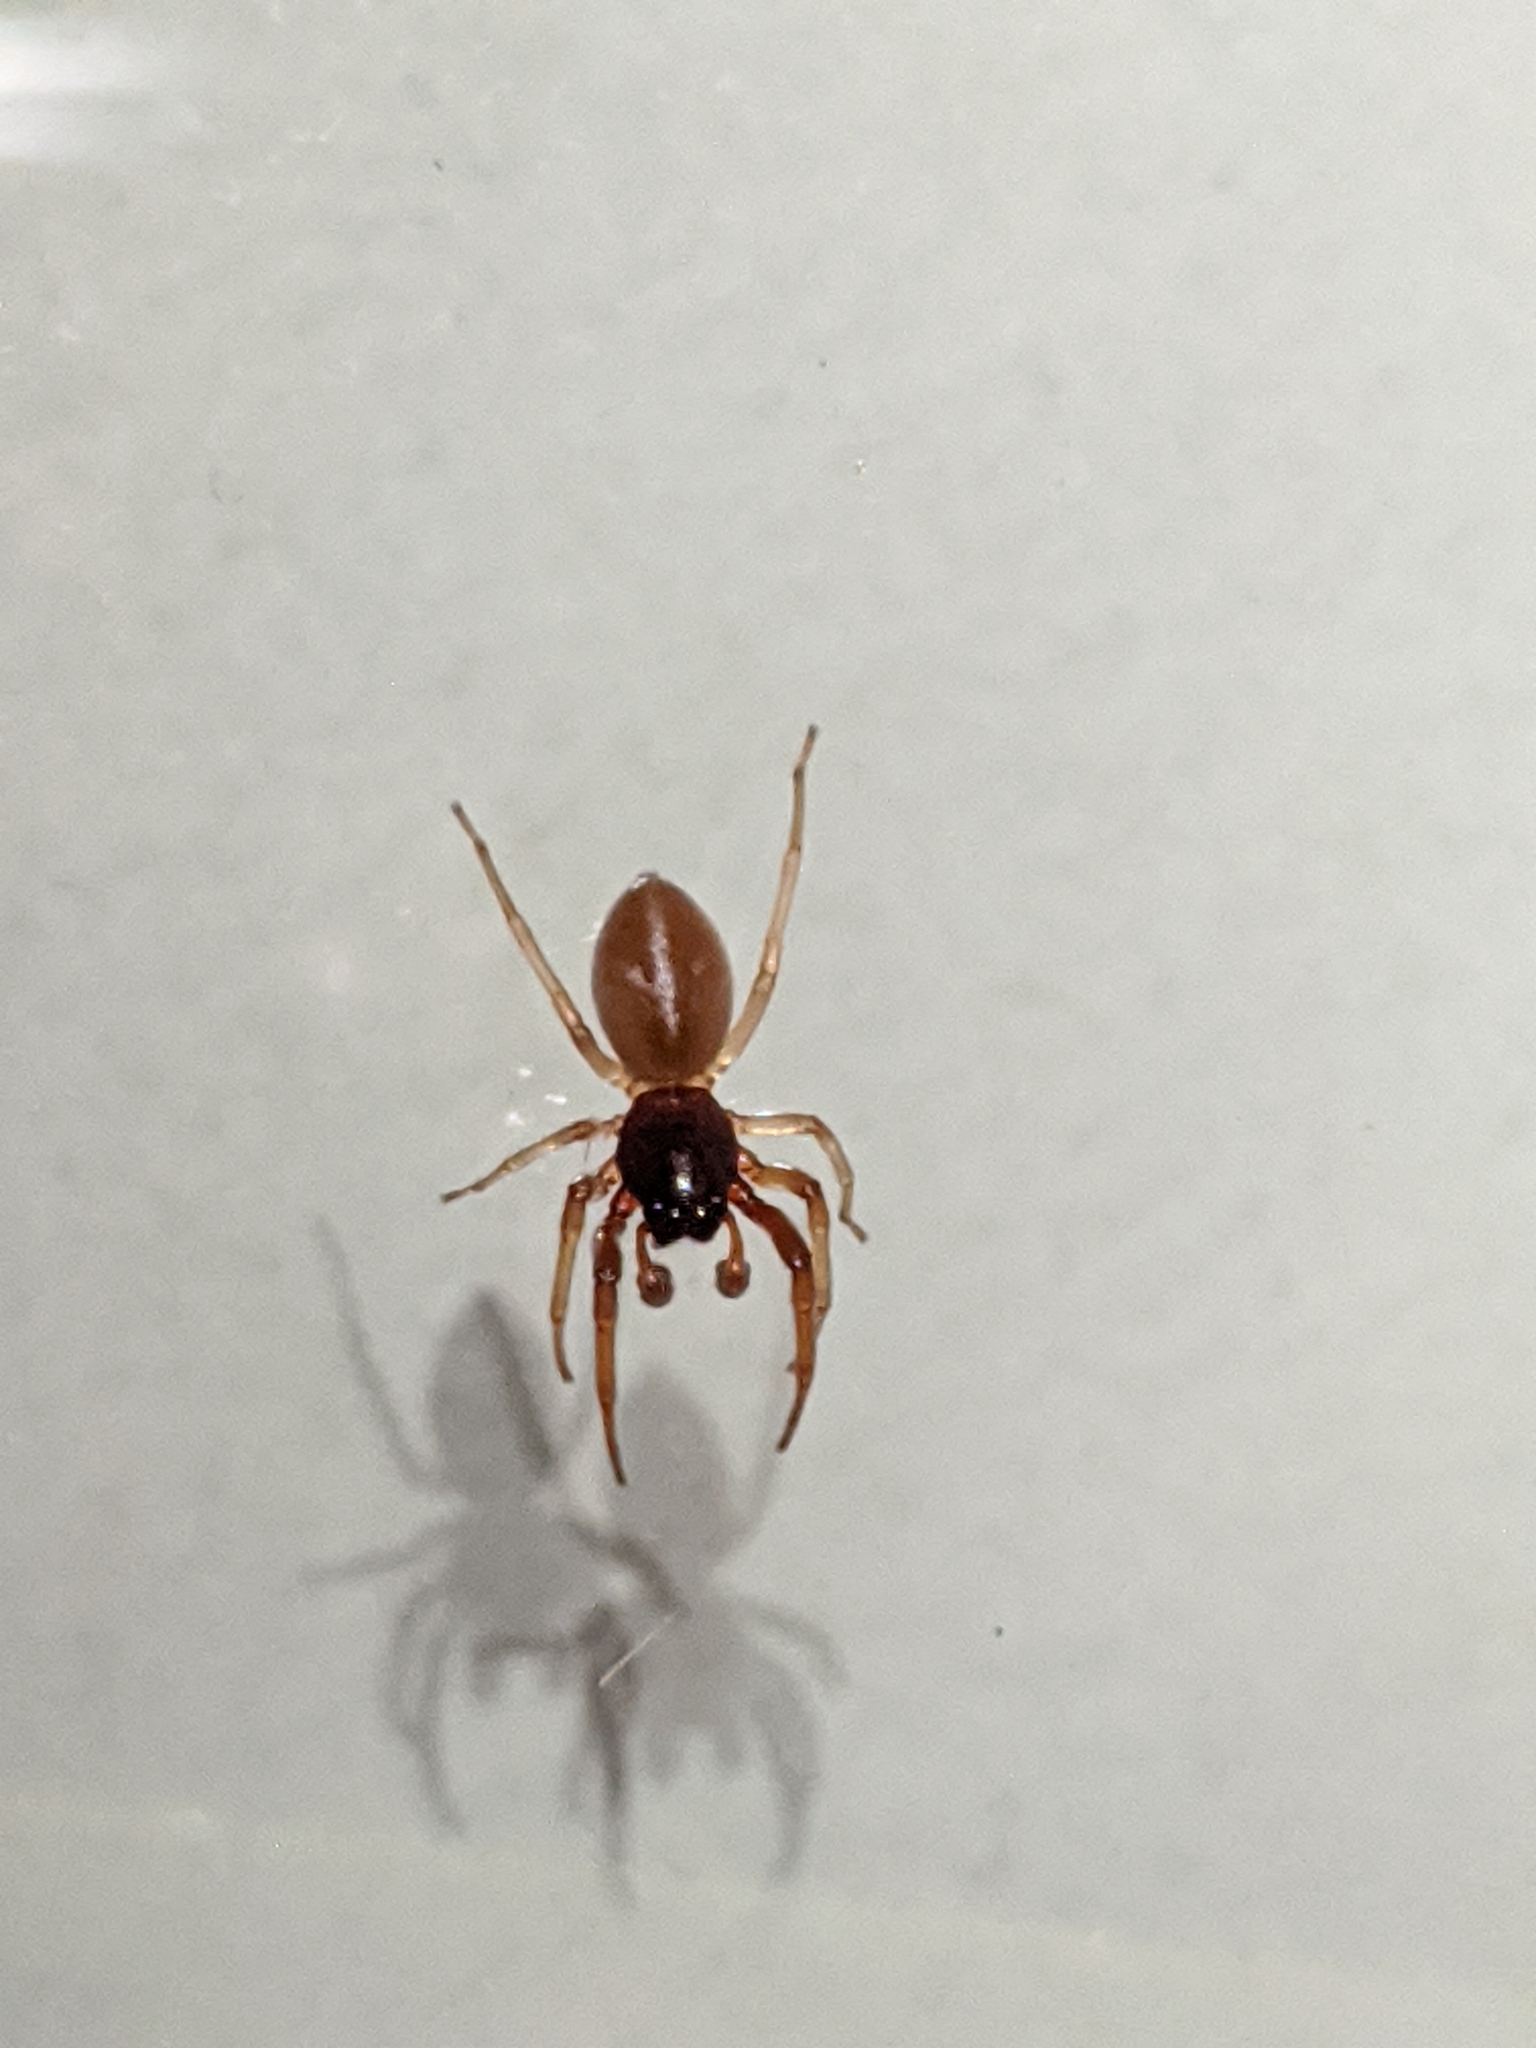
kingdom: Animalia
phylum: Arthropoda
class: Arachnida
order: Araneae
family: Trachelidae
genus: Trachelas
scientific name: Trachelas tranquillus
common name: Broad-faced sac spider
